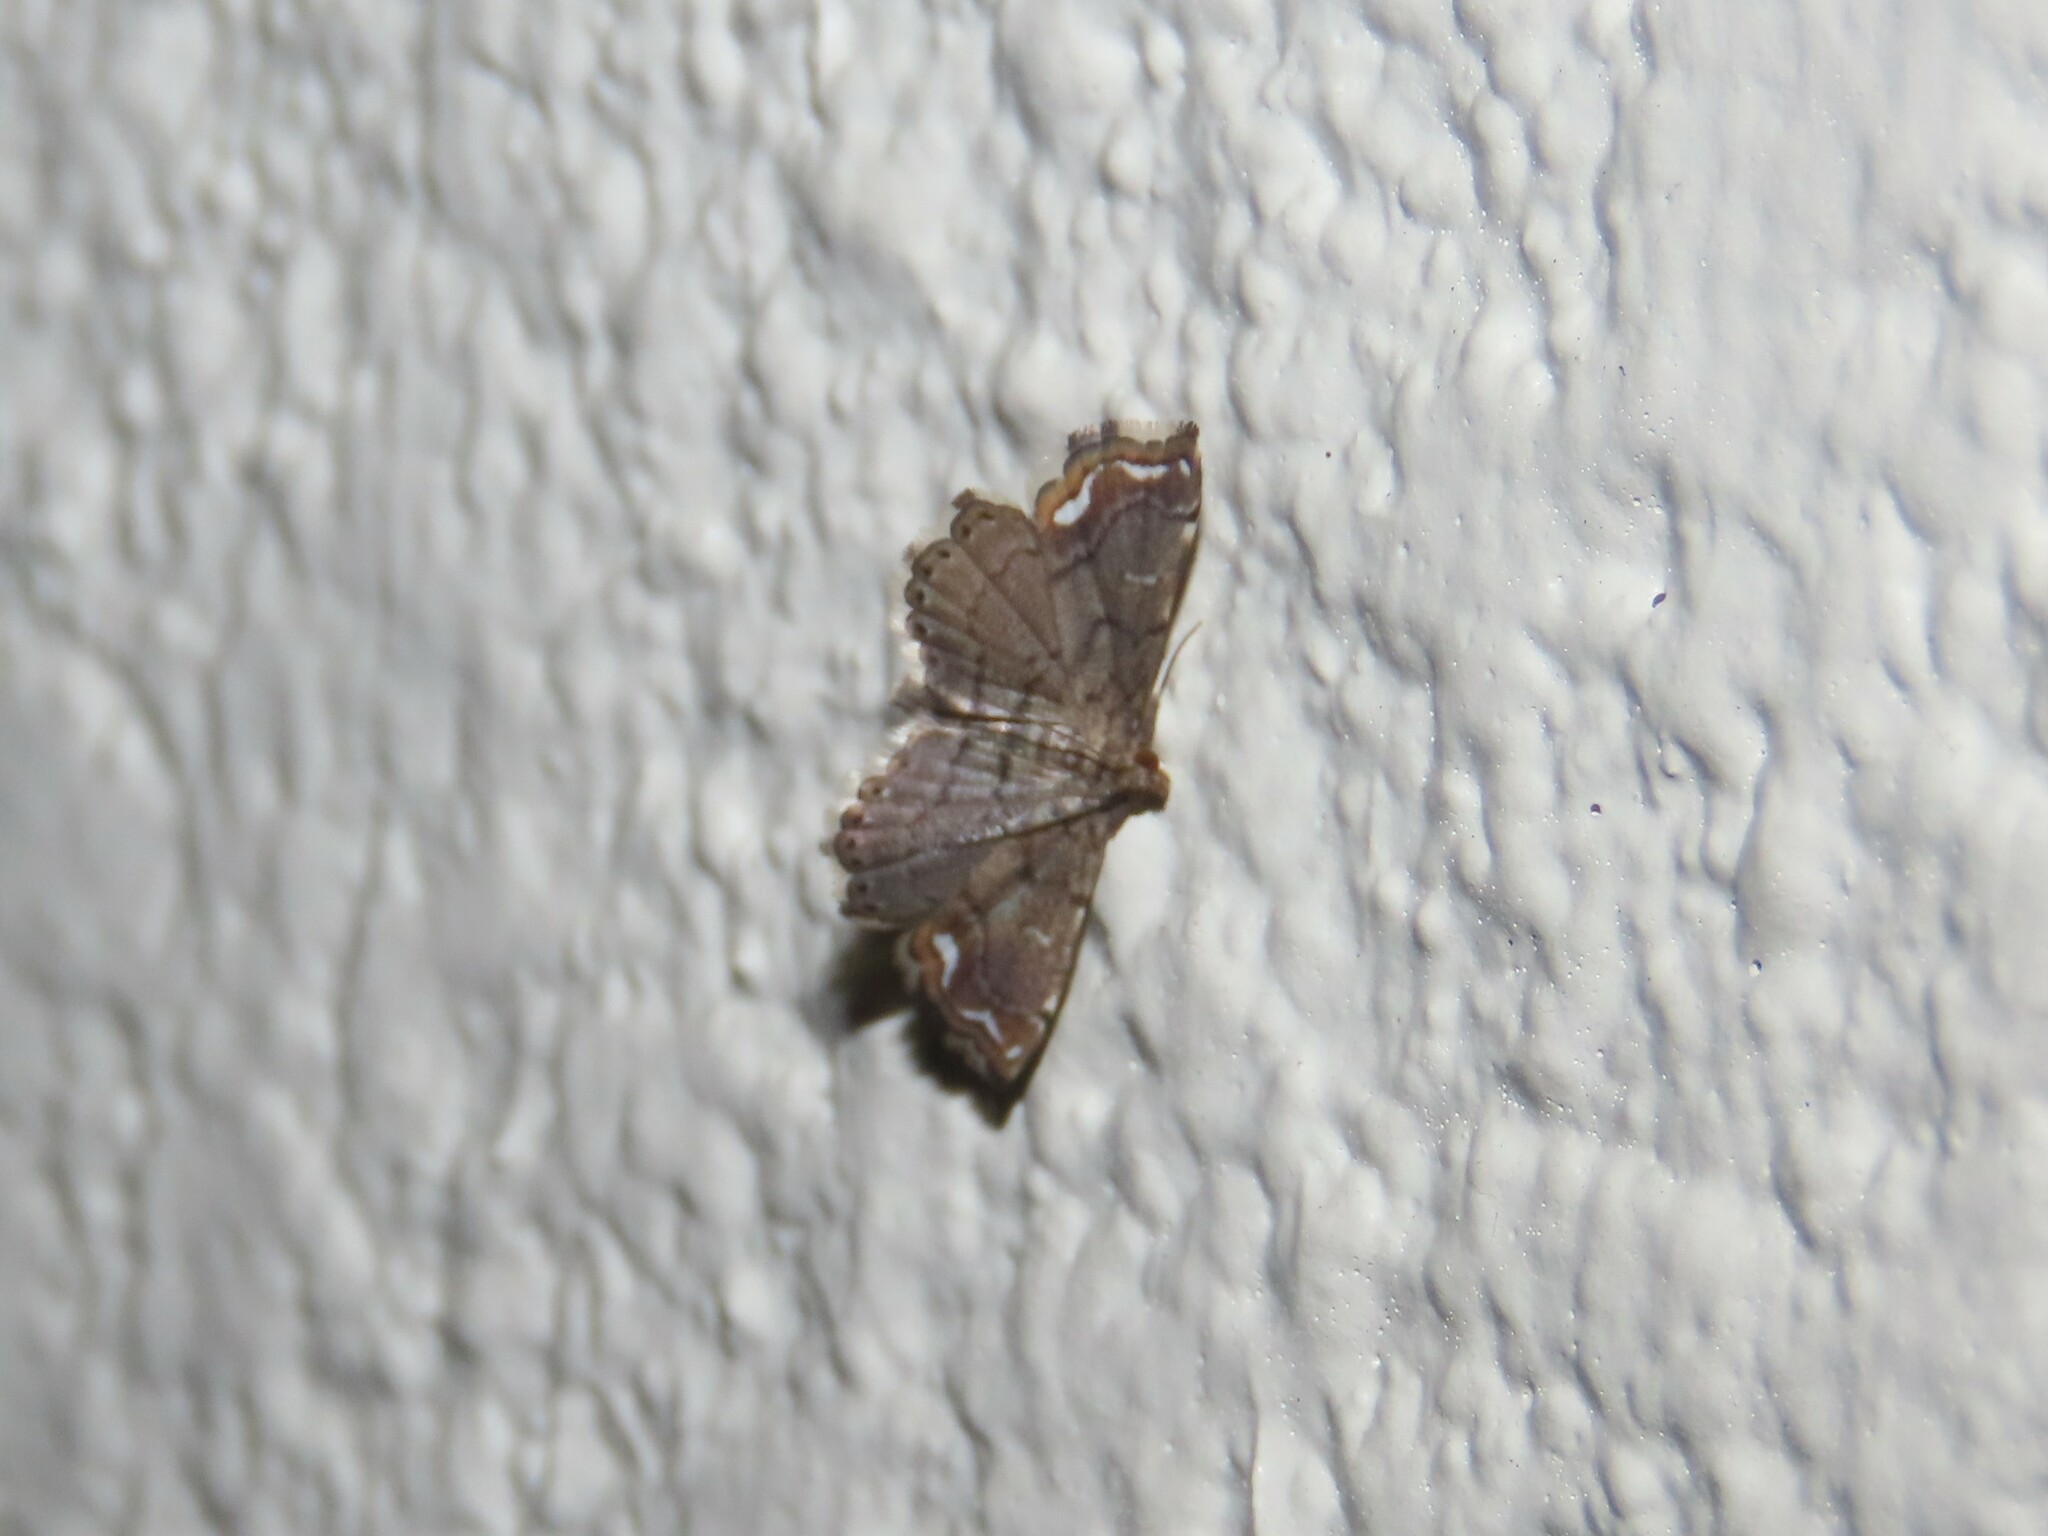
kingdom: Animalia
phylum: Arthropoda
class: Insecta
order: Lepidoptera
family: Pyralidae
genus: Neomusotima
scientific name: Neomusotima conspurcatalis
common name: Lygodium defoliator moth
